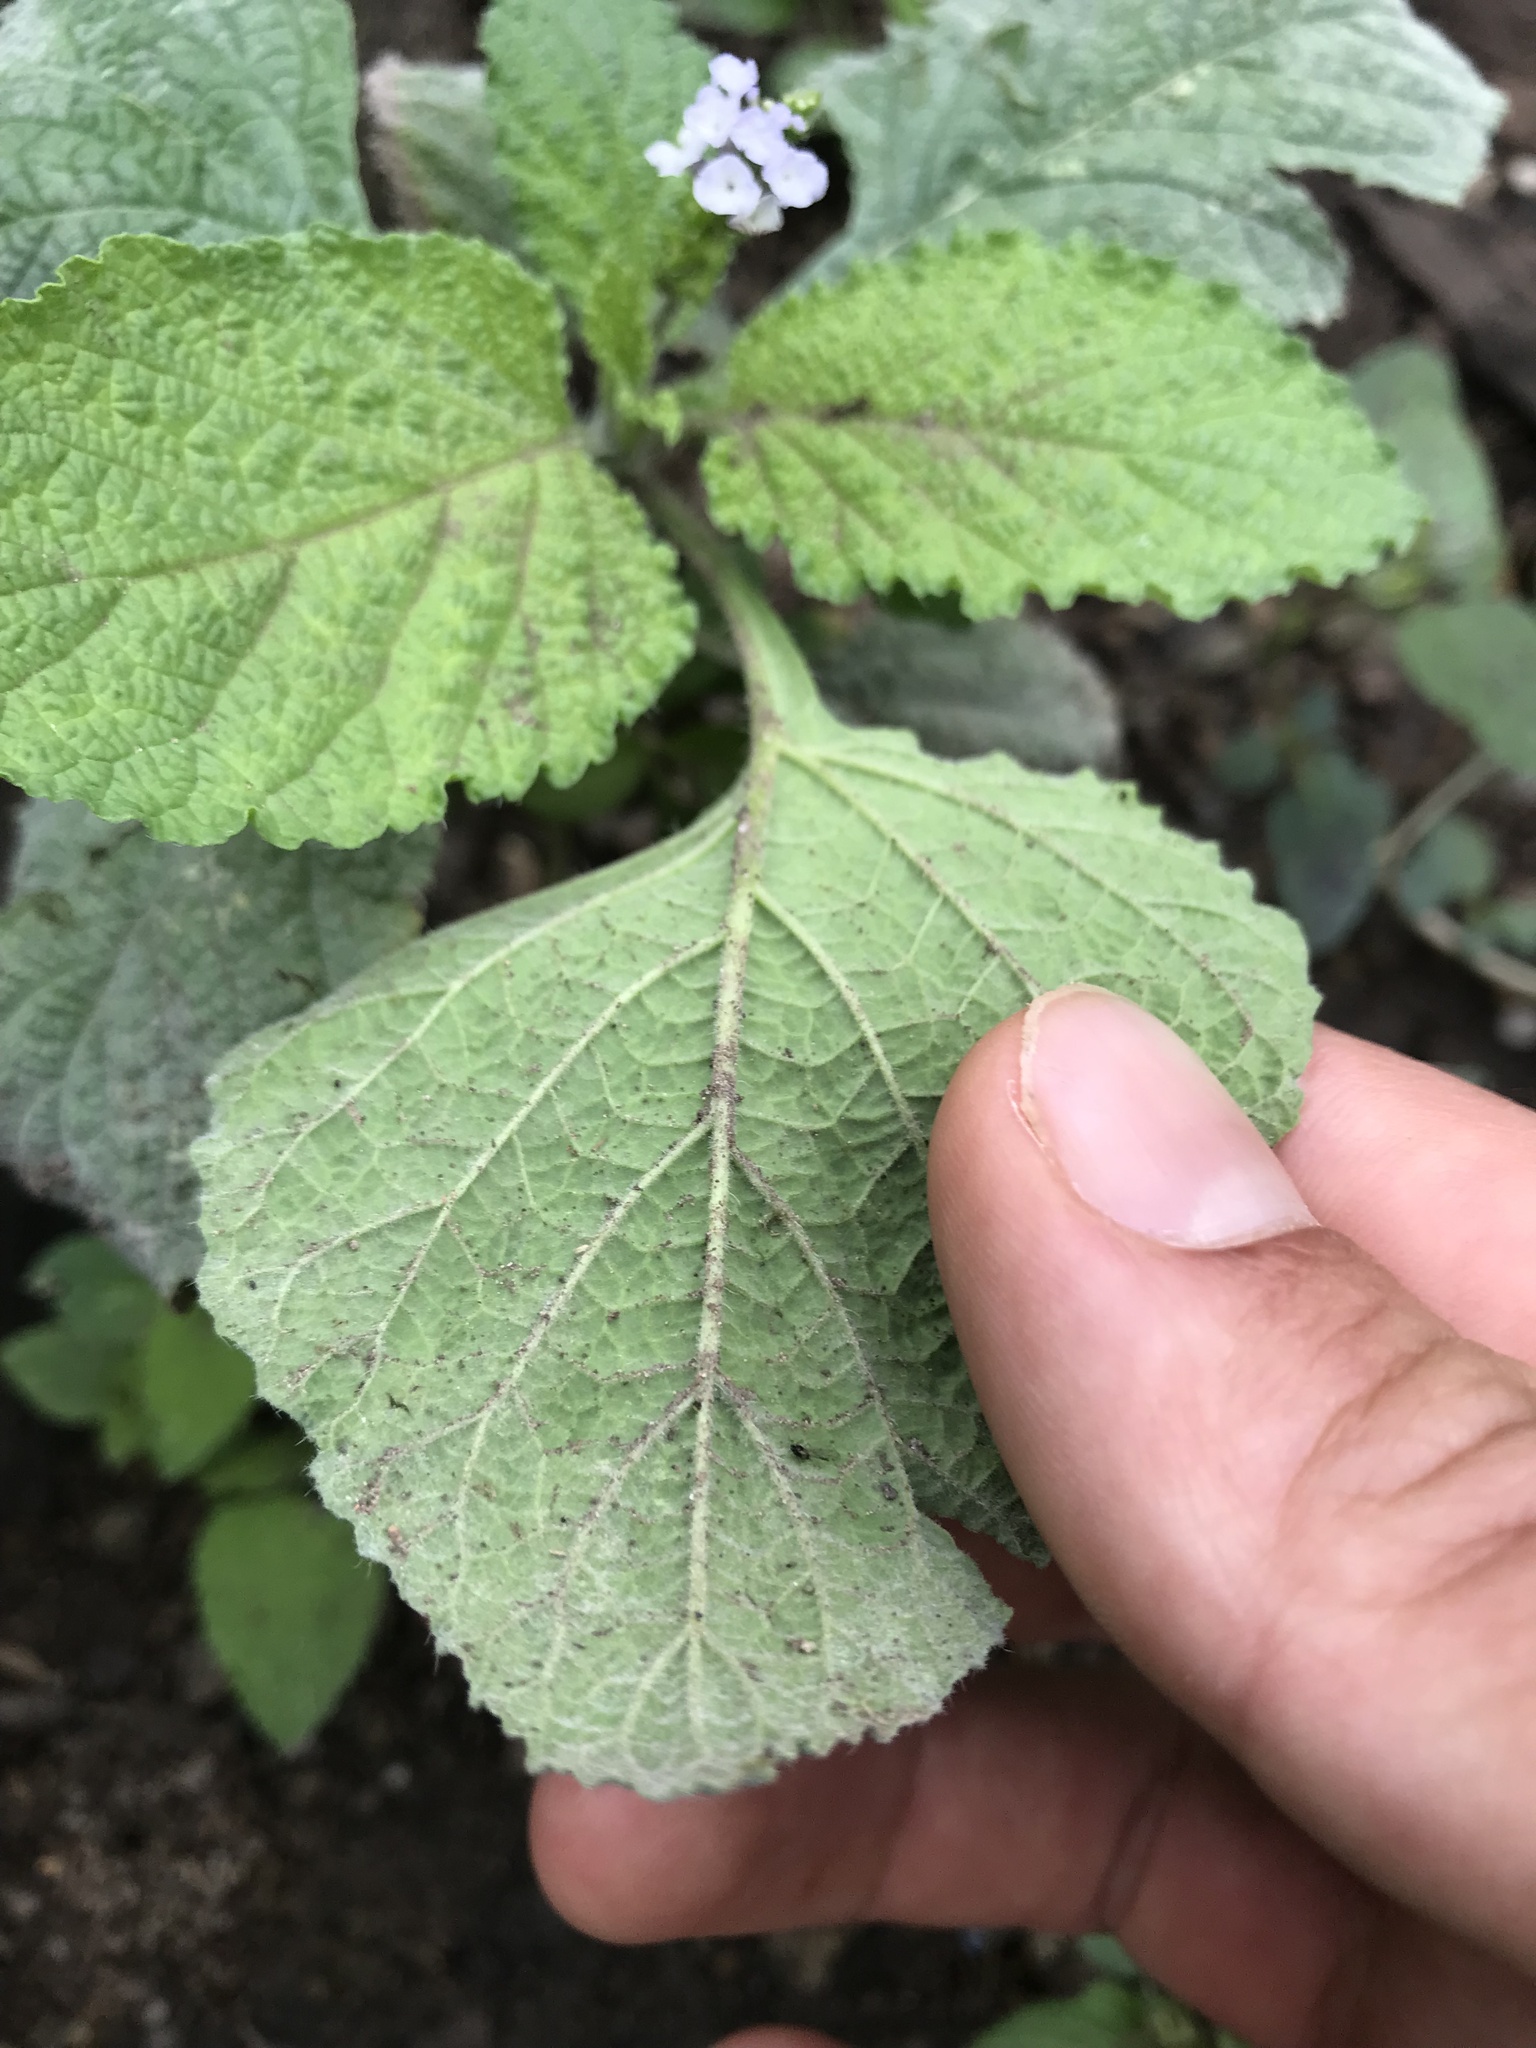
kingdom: Plantae
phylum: Tracheophyta
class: Magnoliopsida
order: Boraginales
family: Heliotropiaceae
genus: Heliotropium
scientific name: Heliotropium indicum
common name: Indian heliotrope
